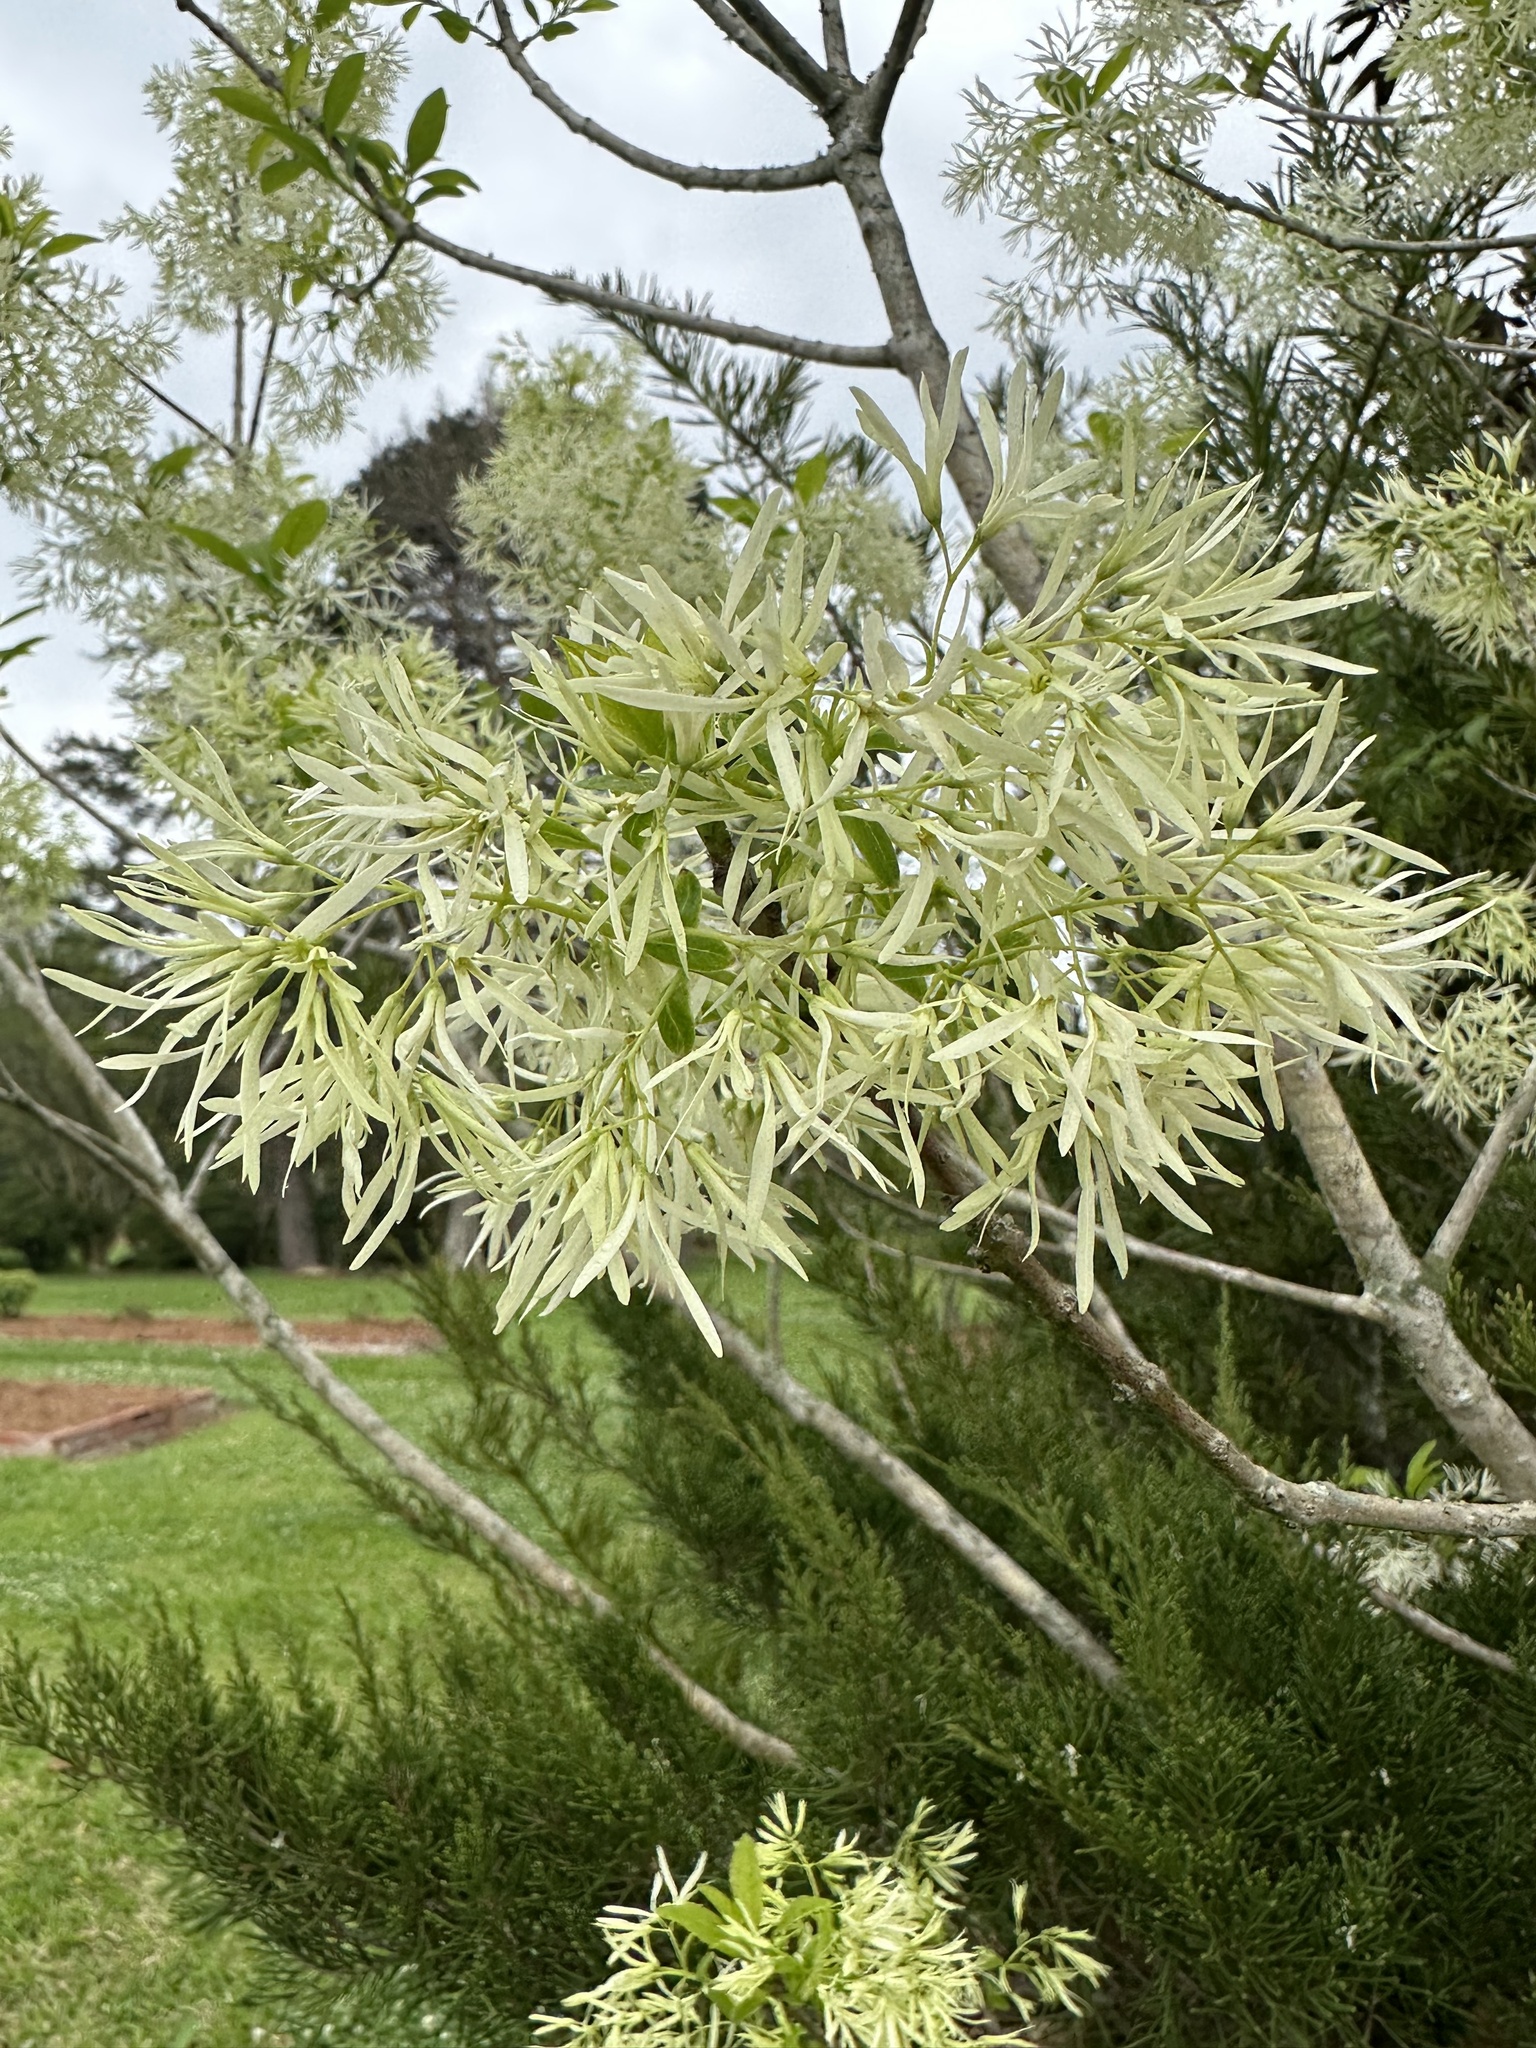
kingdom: Plantae
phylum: Tracheophyta
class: Magnoliopsida
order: Lamiales
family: Oleaceae
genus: Chionanthus
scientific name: Chionanthus virginicus
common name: American fringetree
